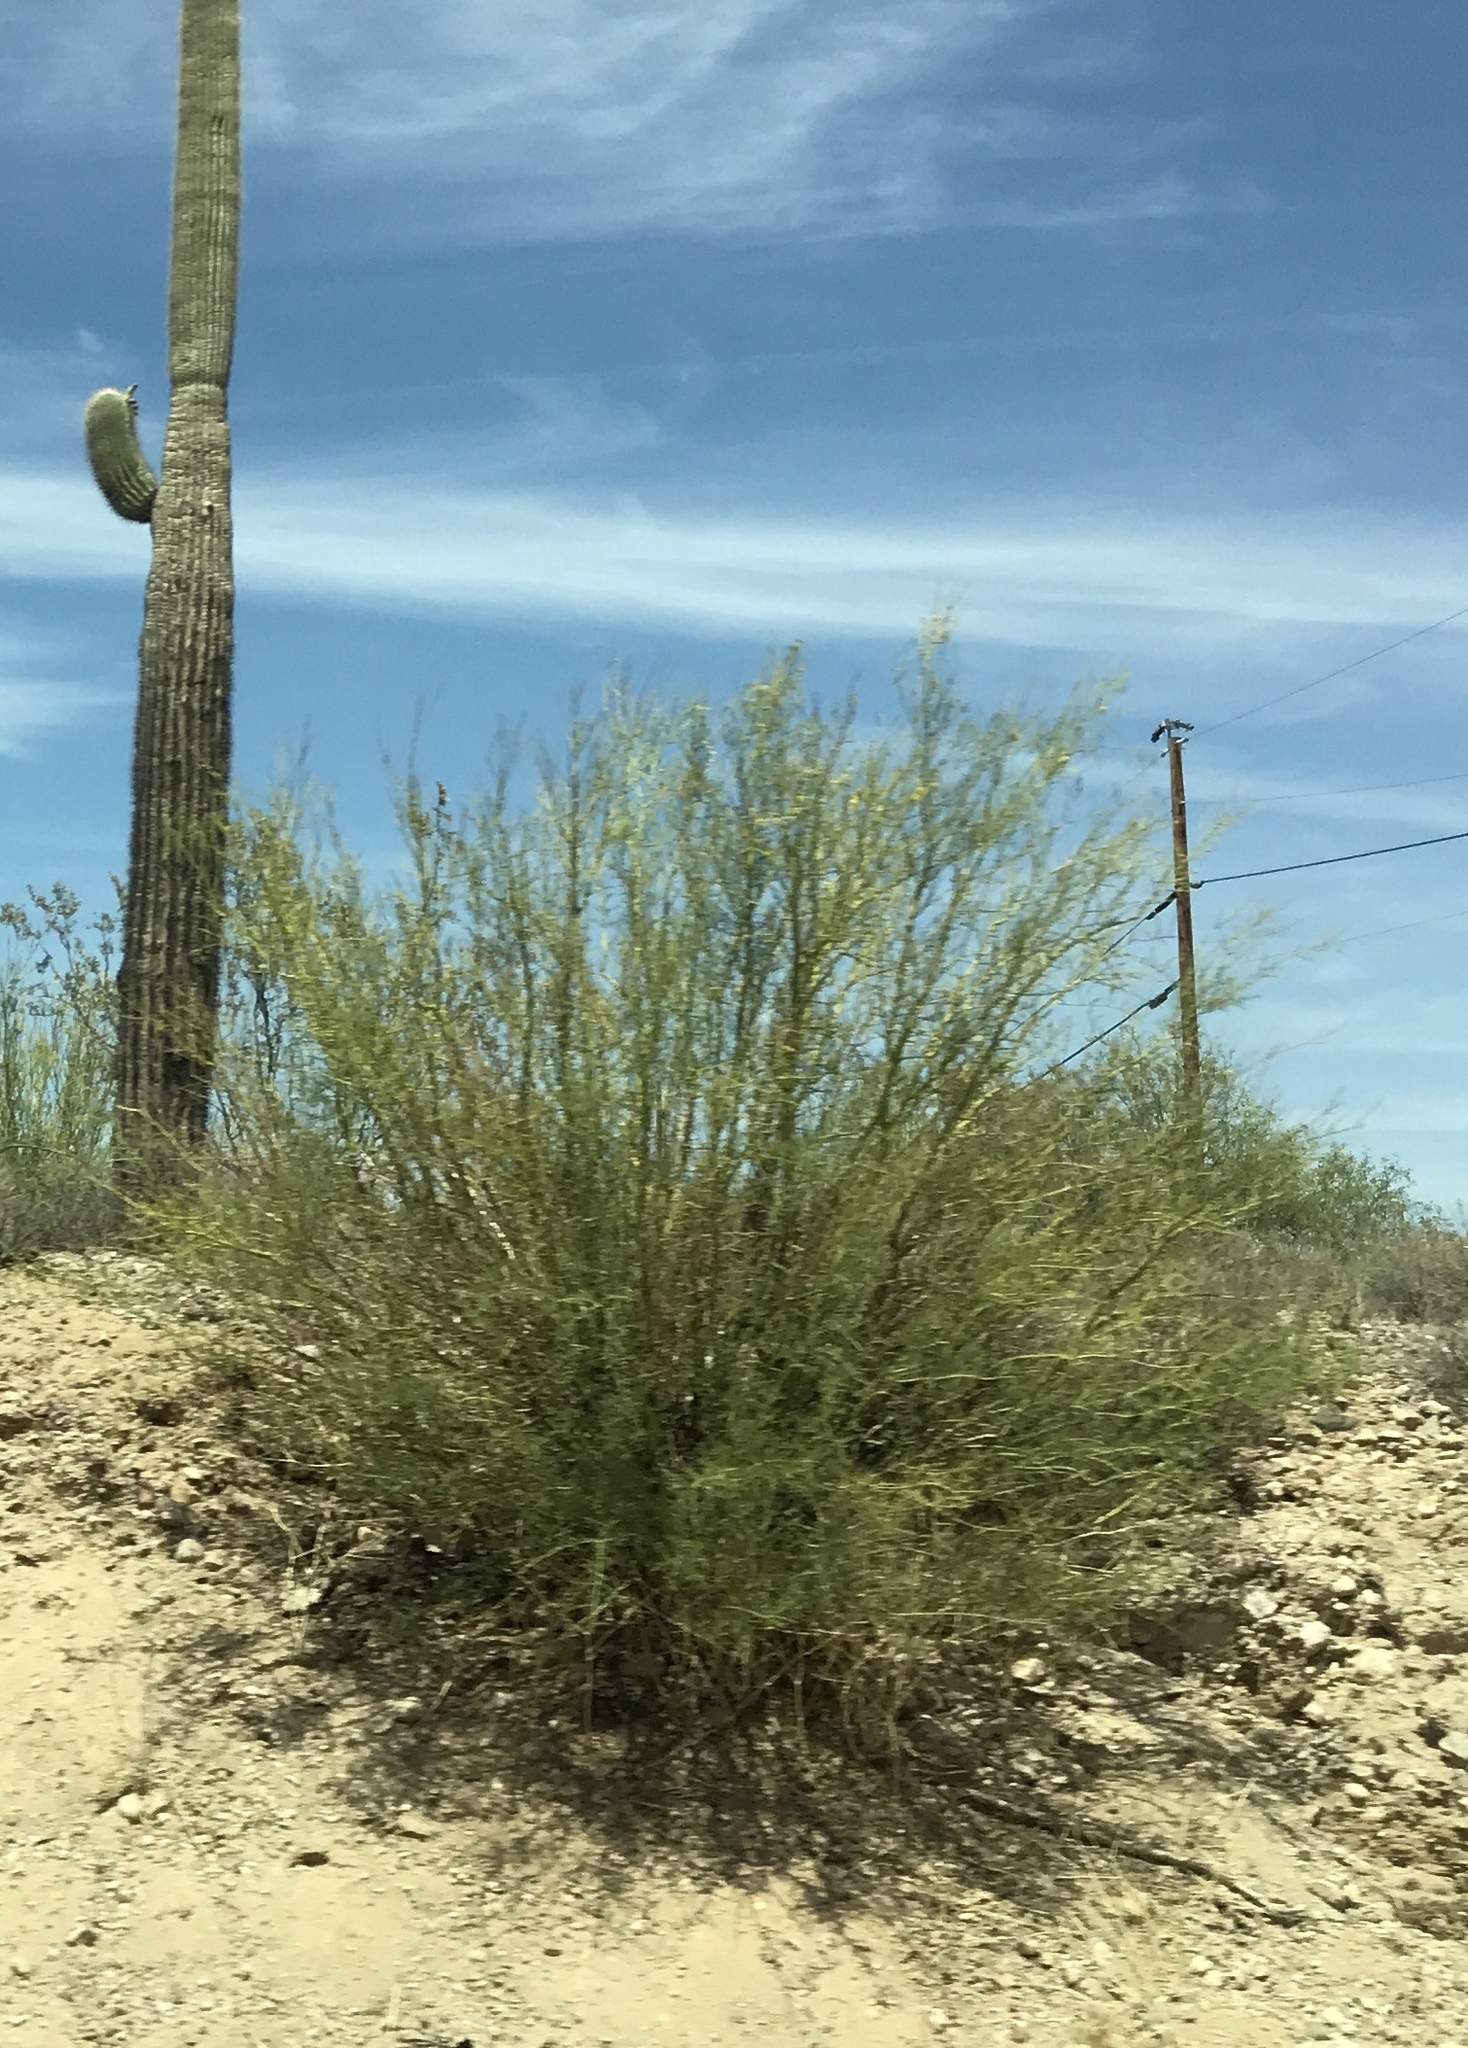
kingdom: Plantae
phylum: Tracheophyta
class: Magnoliopsida
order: Fabales
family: Fabaceae
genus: Parkinsonia
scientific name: Parkinsonia microphylla
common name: Yellow paloverde
